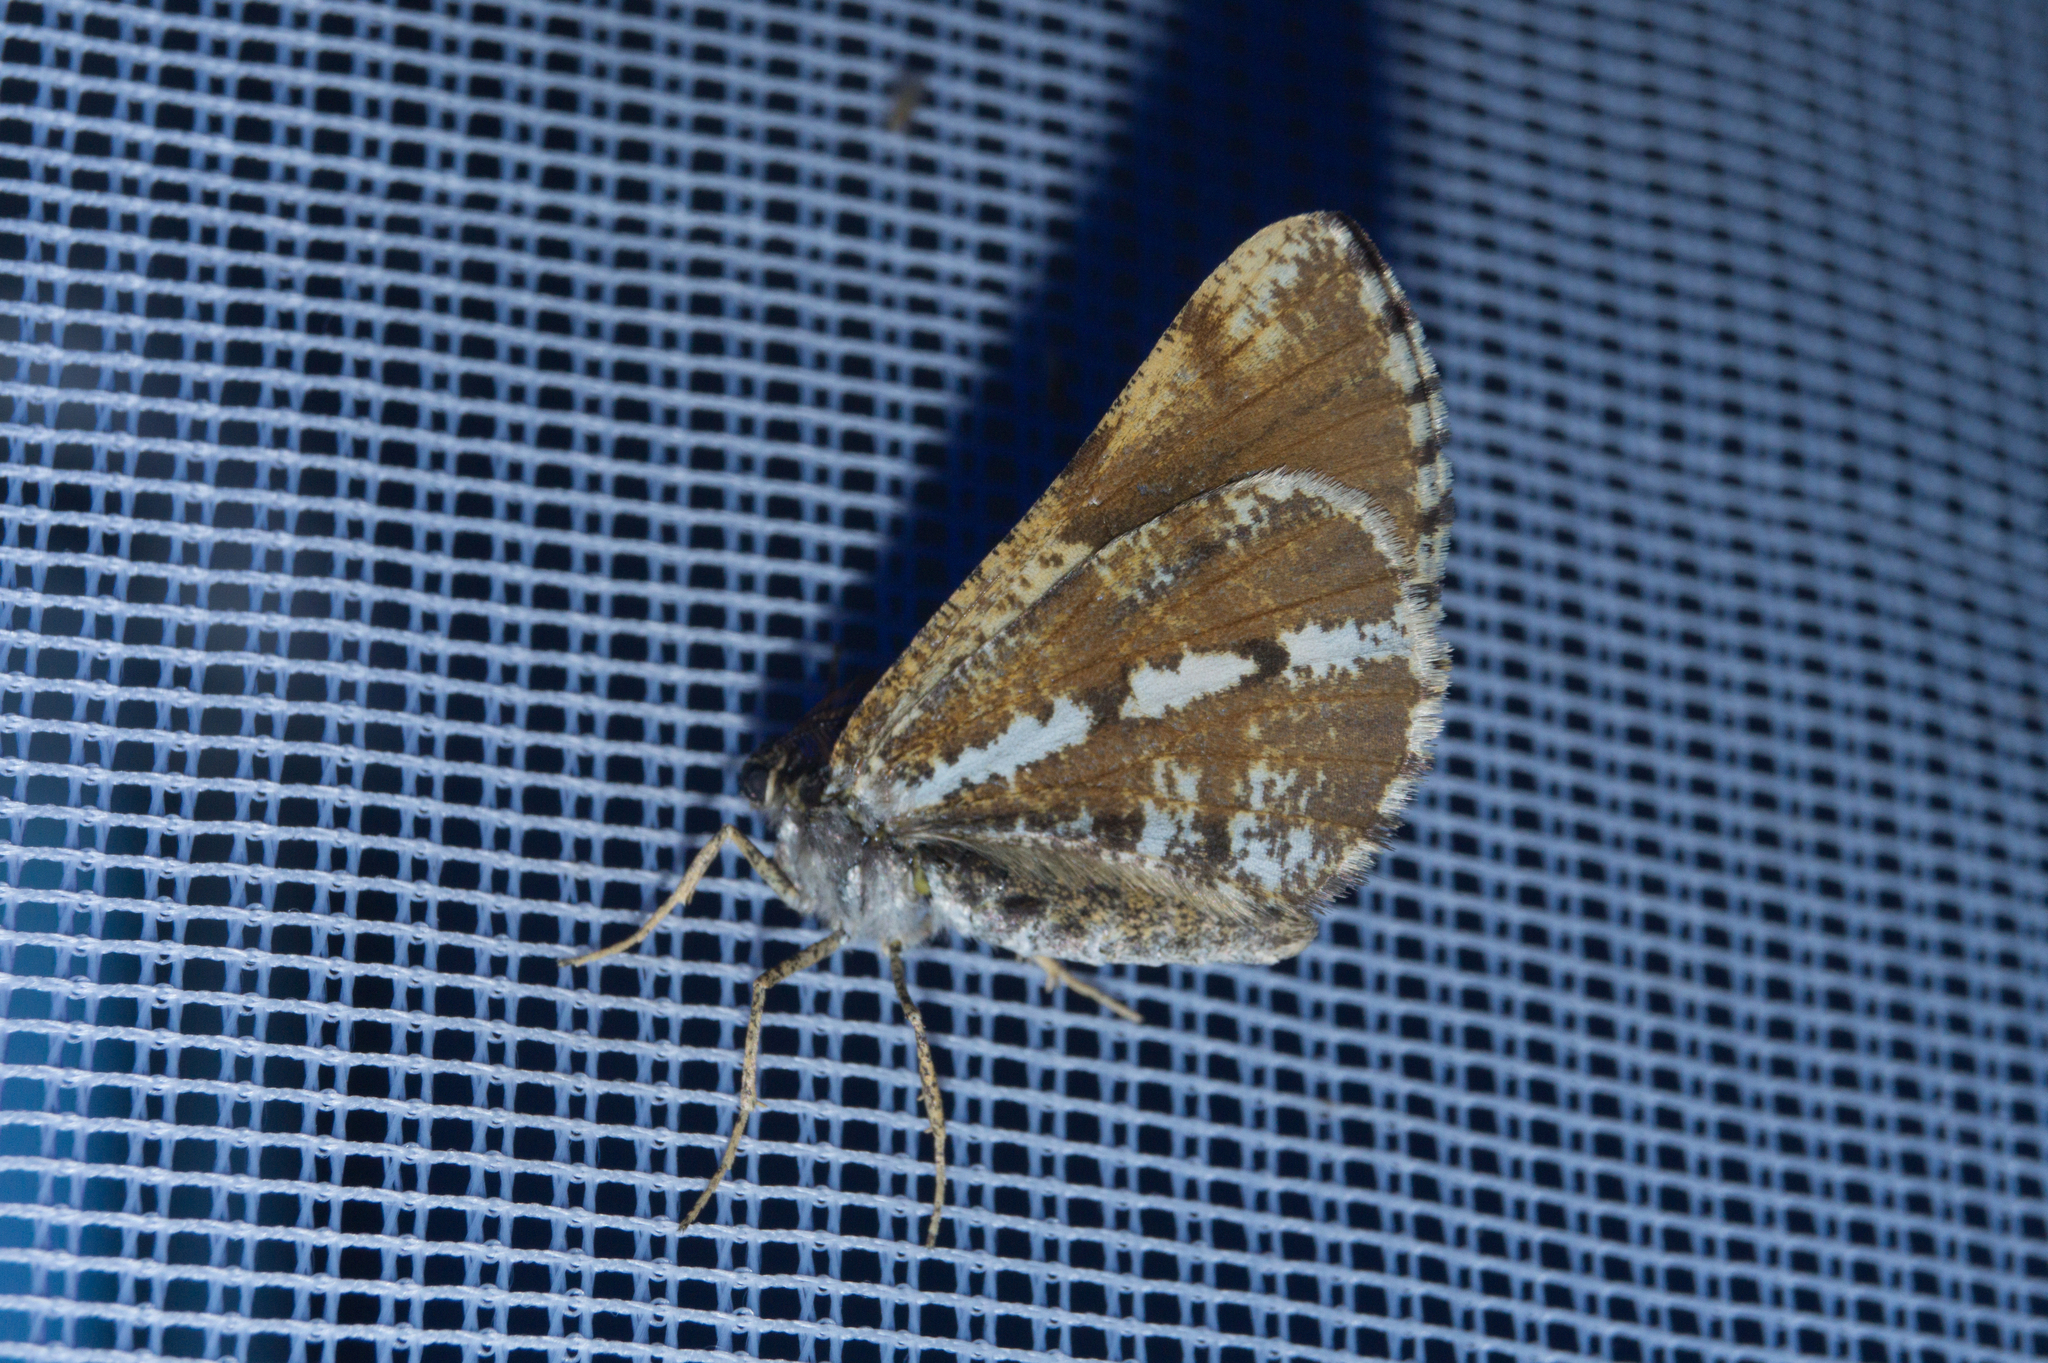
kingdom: Animalia
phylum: Arthropoda
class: Insecta
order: Lepidoptera
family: Geometridae
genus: Bupalus
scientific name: Bupalus piniaria
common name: Bordered white
